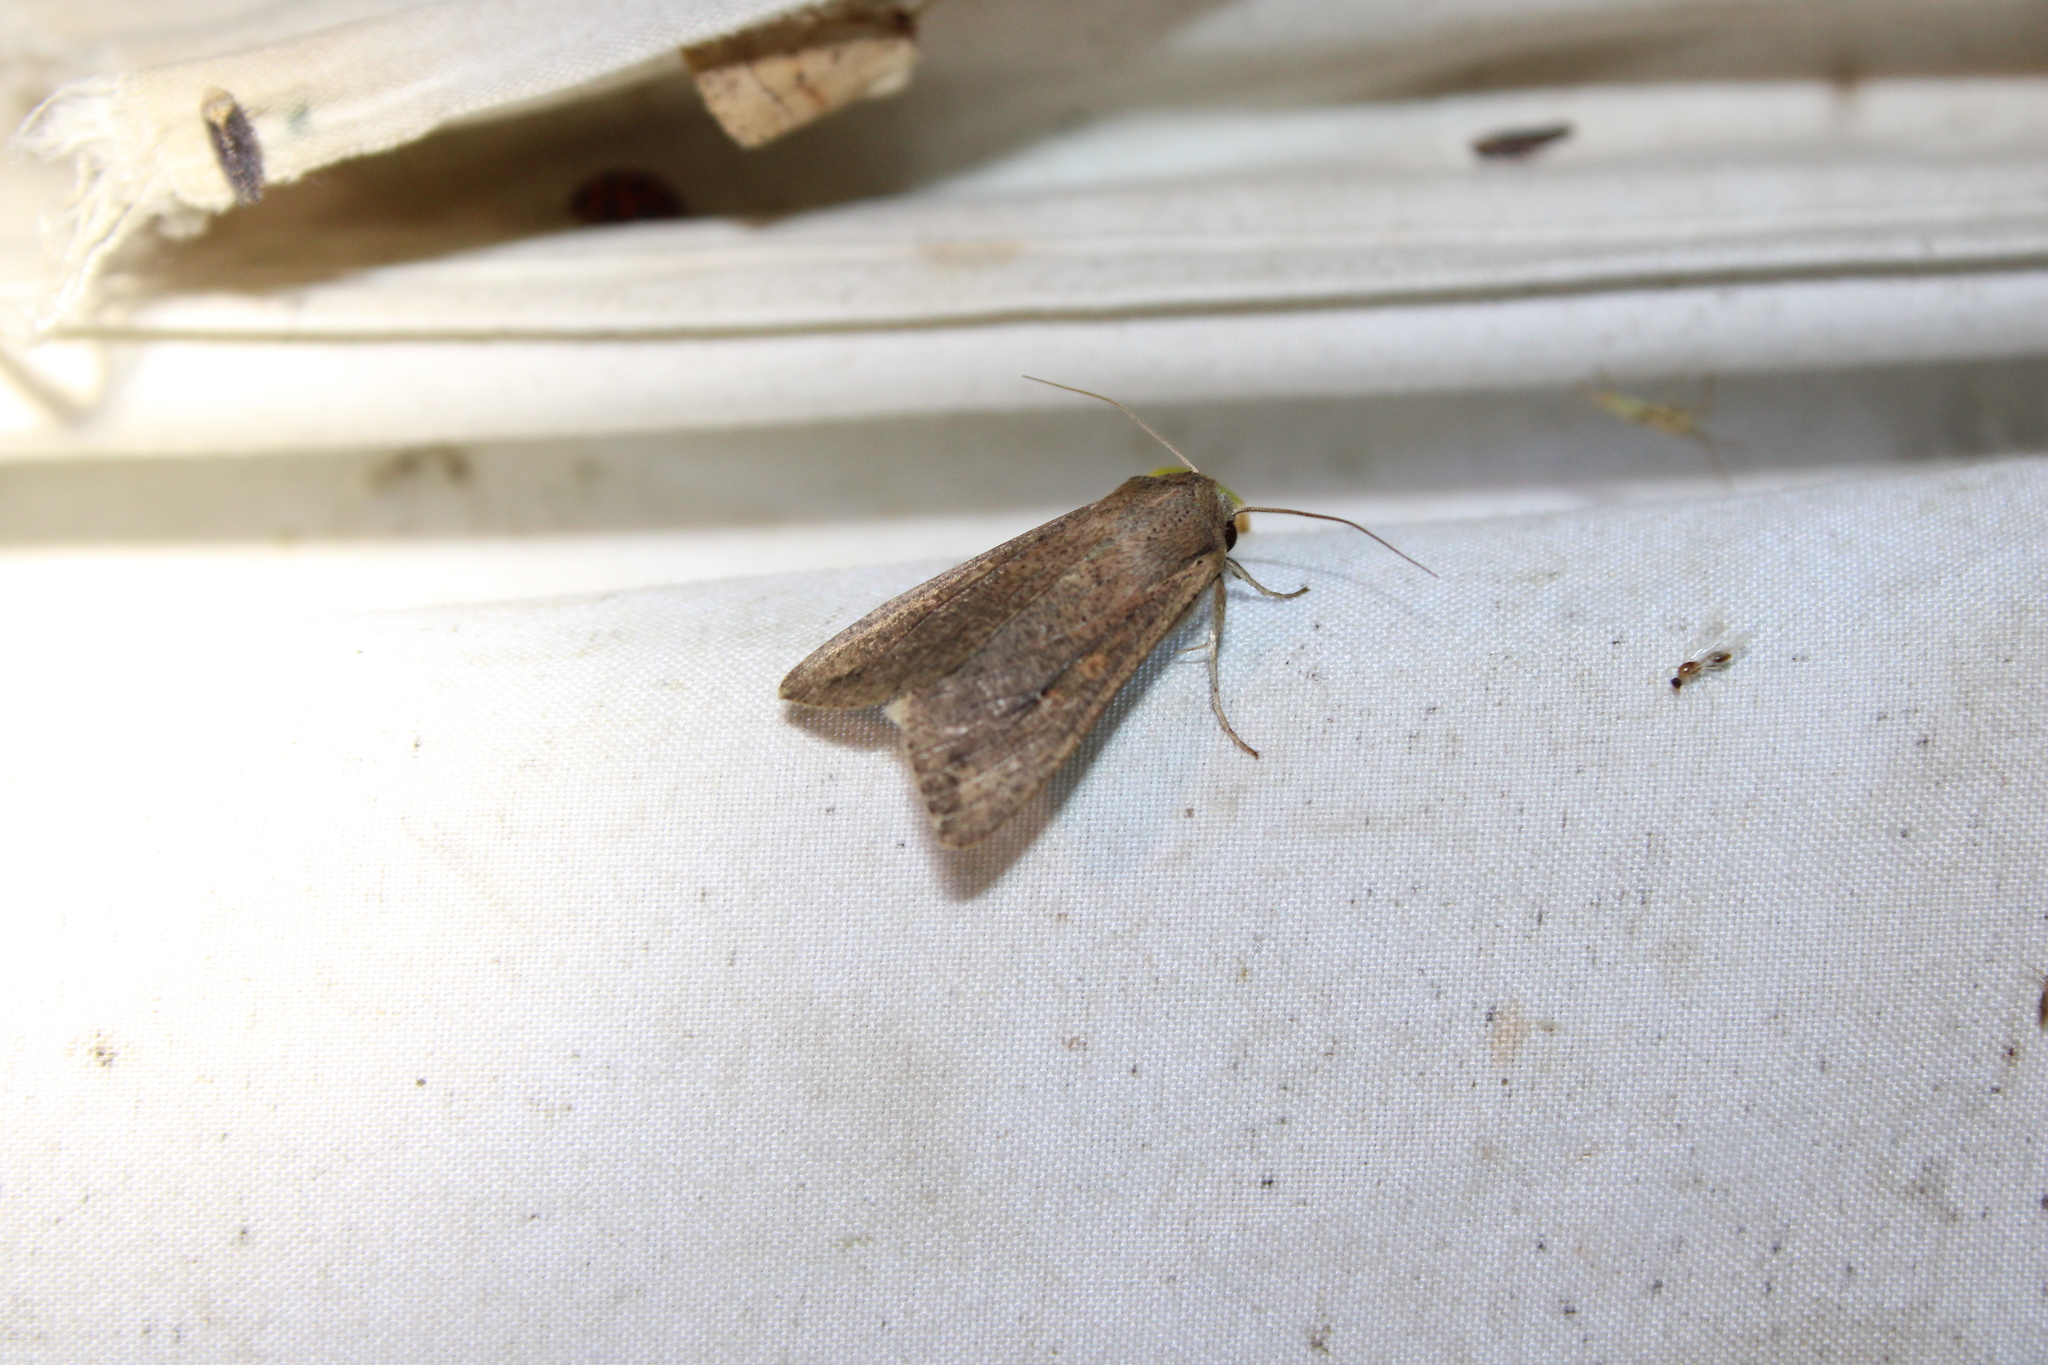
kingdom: Animalia
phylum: Arthropoda
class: Insecta
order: Lepidoptera
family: Noctuidae
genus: Mythimna
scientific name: Mythimna unipuncta
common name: White-speck
